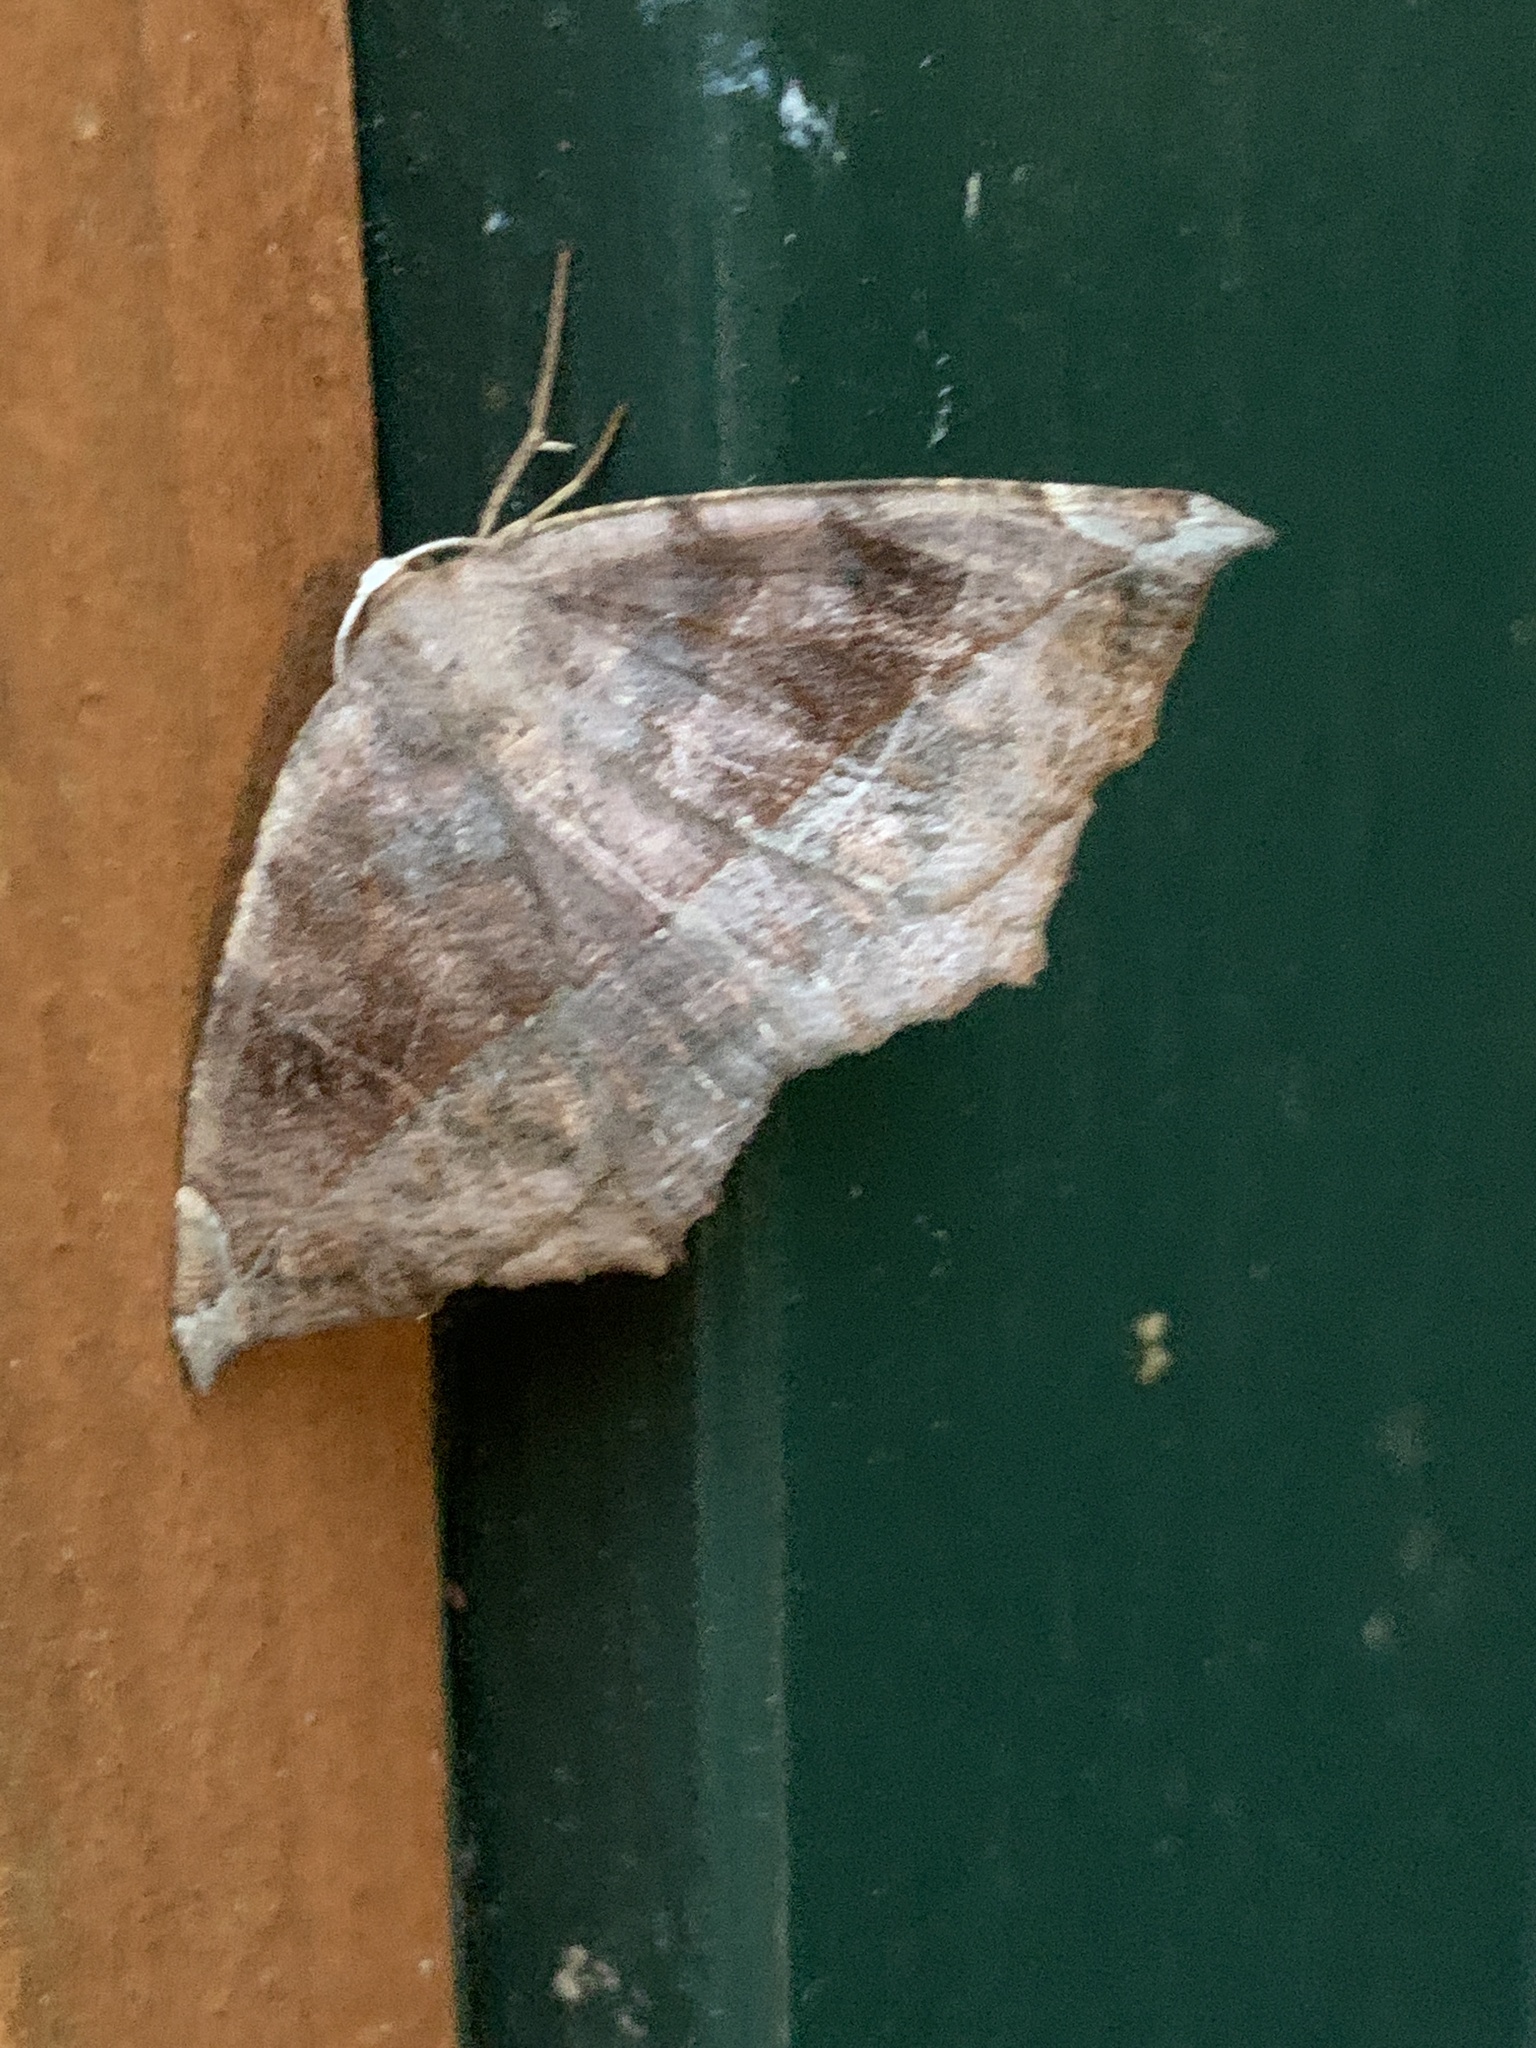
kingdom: Animalia
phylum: Arthropoda
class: Insecta
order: Lepidoptera
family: Geometridae
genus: Eutrapela
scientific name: Eutrapela clemataria
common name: Curved-toothed geometer
